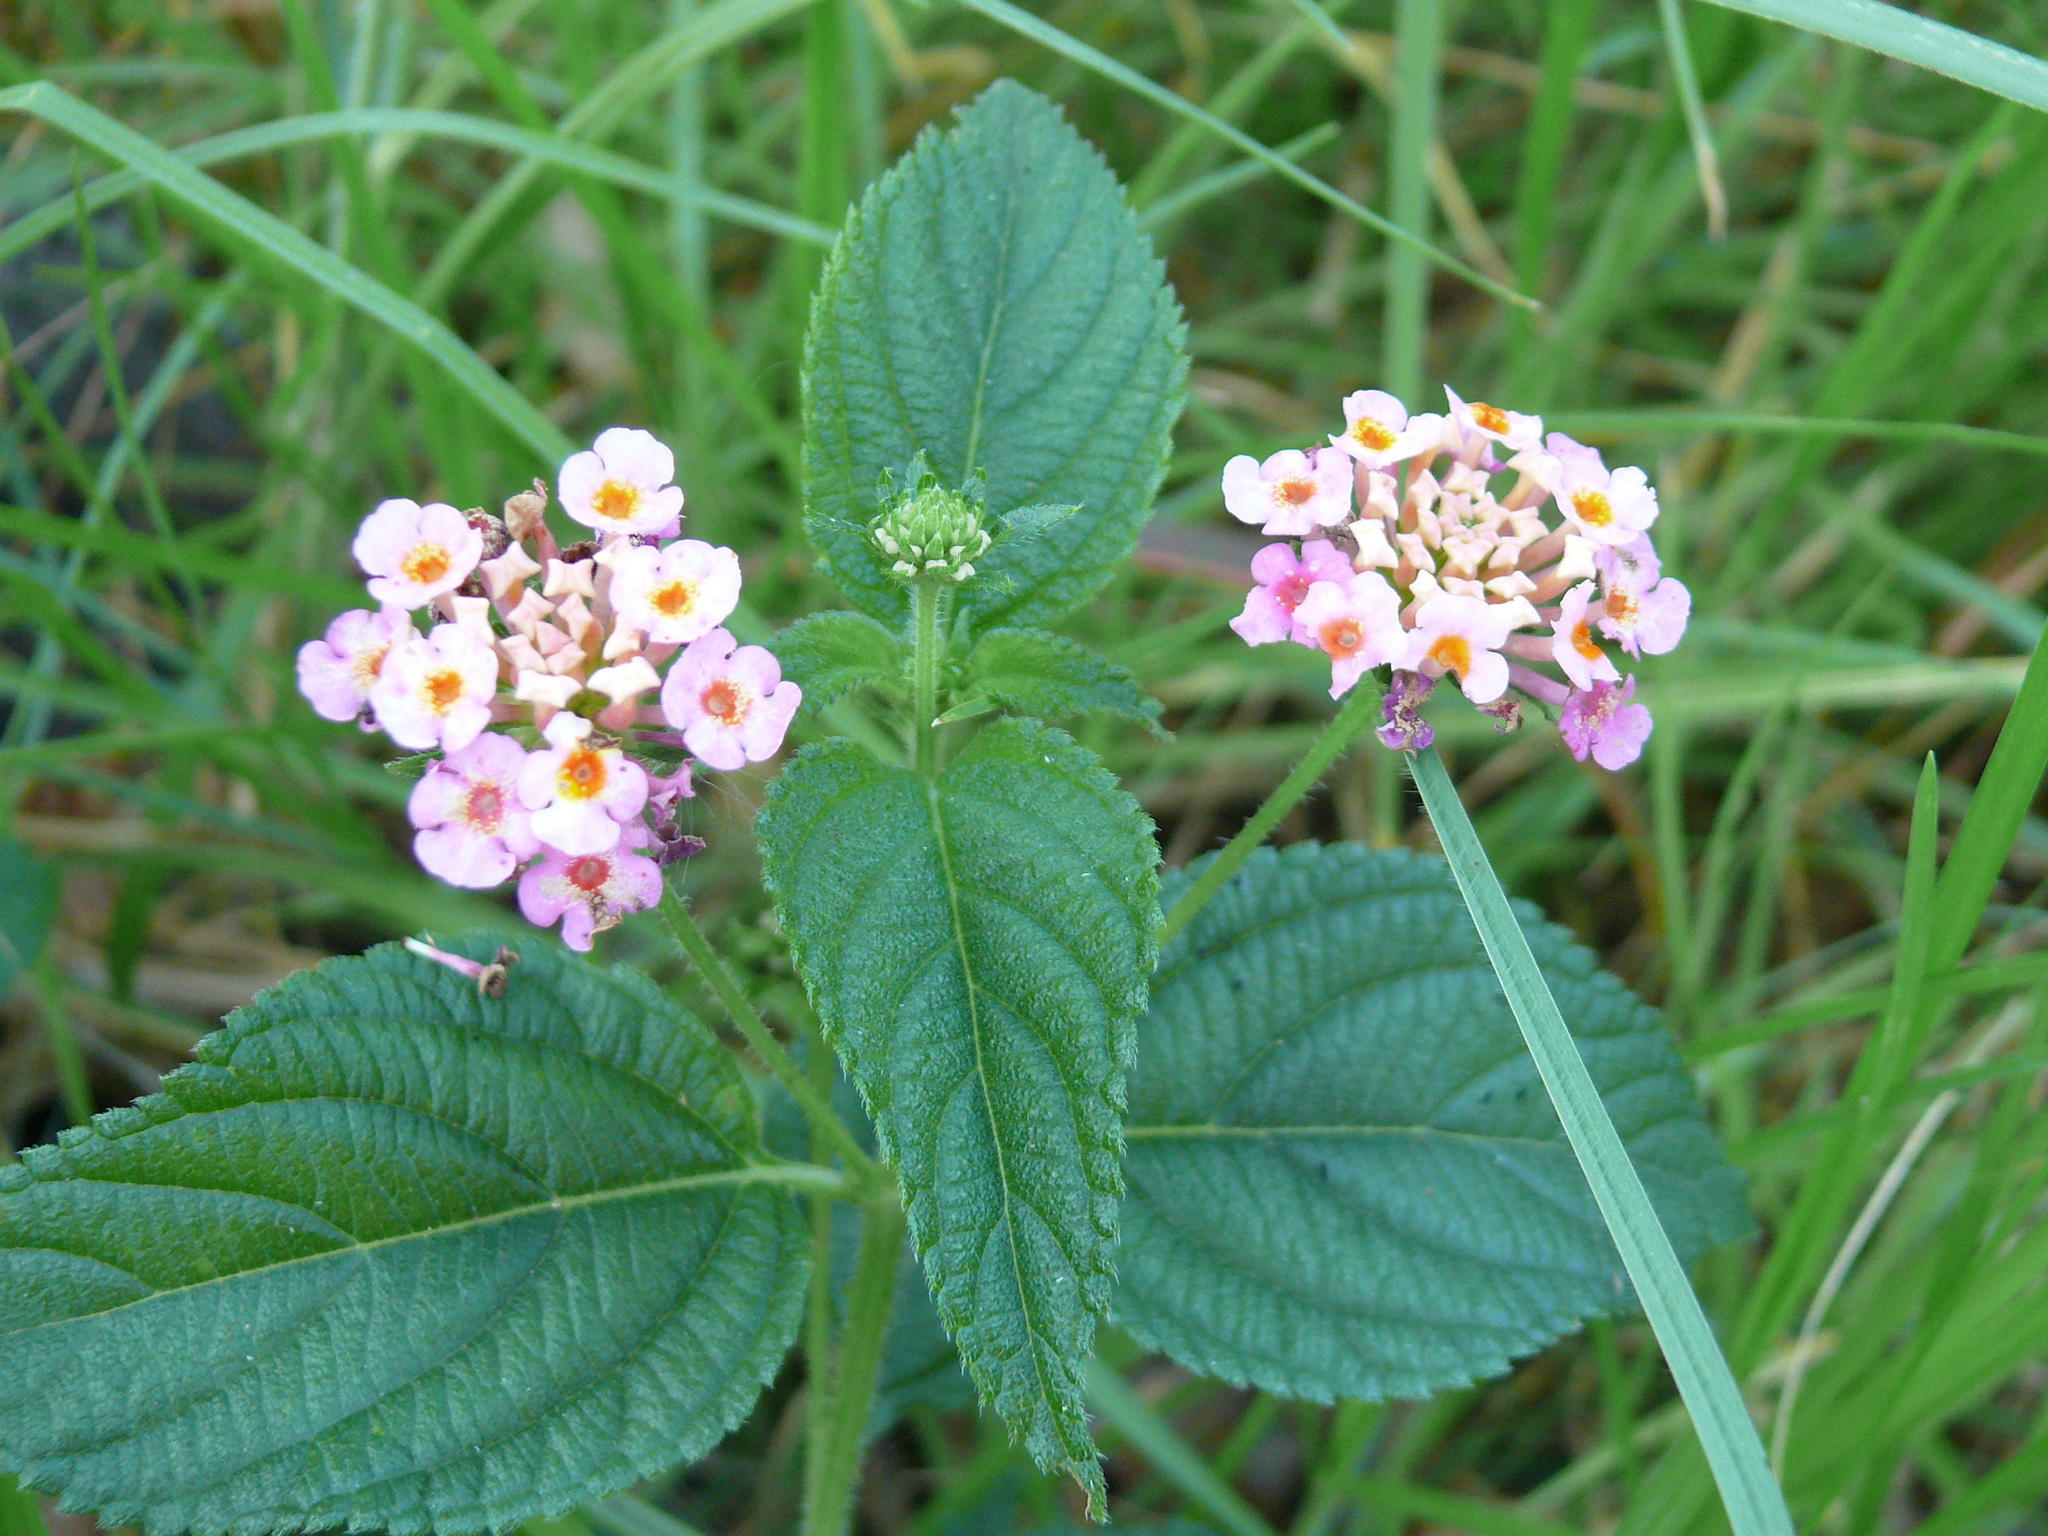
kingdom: Plantae
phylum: Tracheophyta
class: Magnoliopsida
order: Lamiales
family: Verbenaceae
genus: Lantana
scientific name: Lantana camara
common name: Lantana
